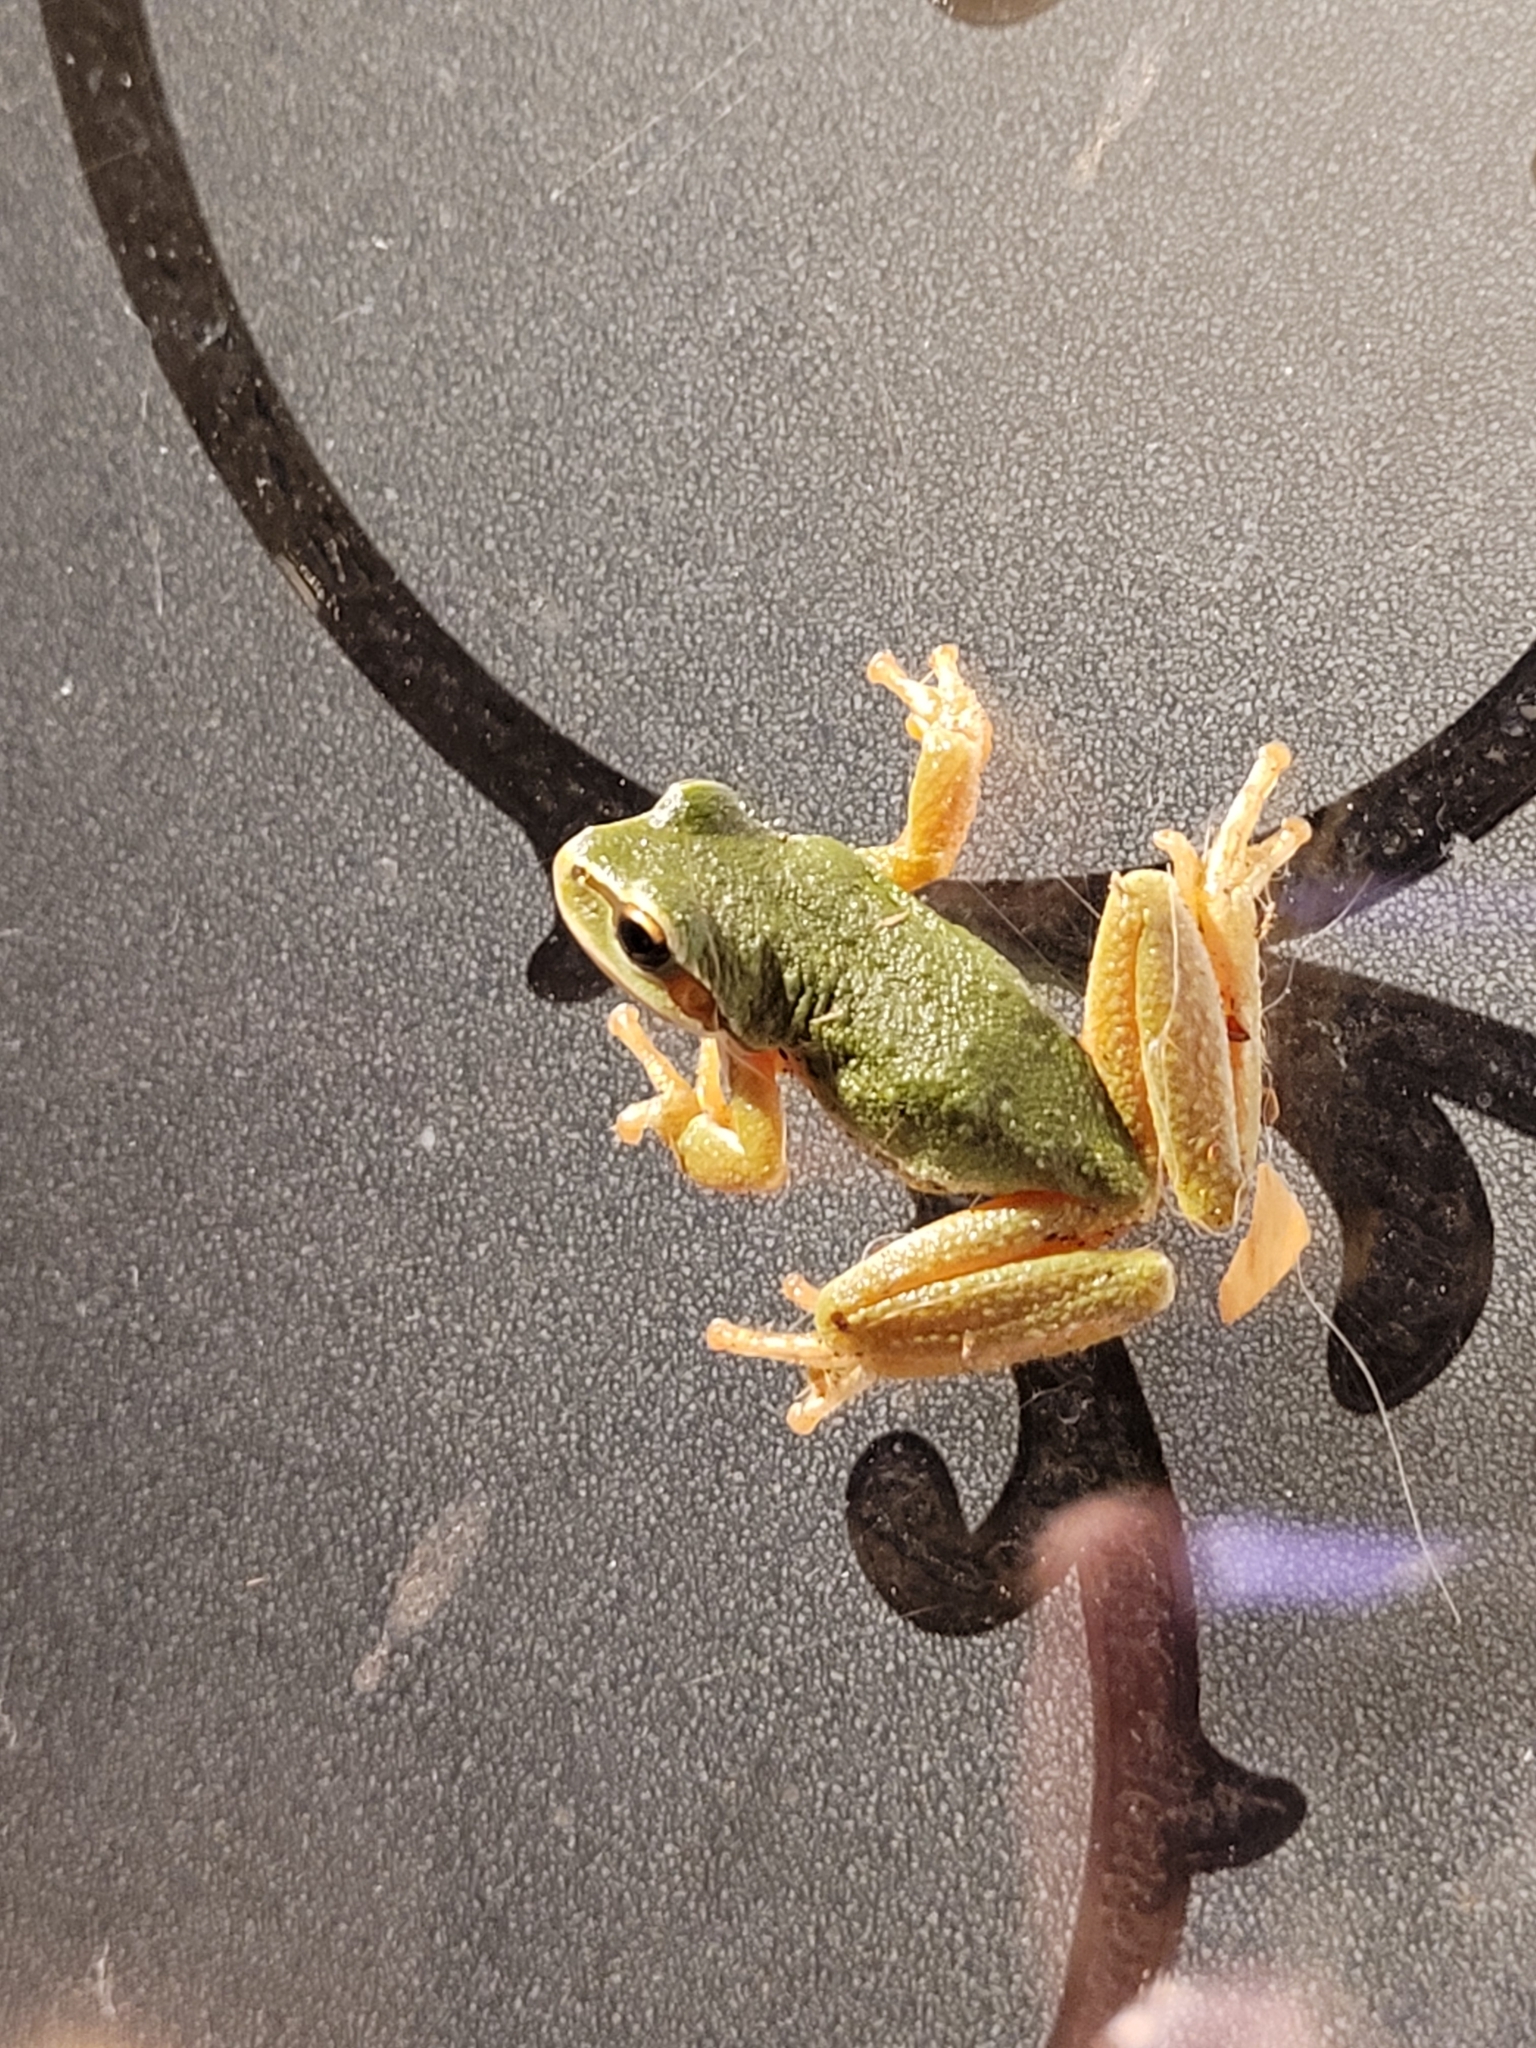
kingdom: Animalia
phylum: Chordata
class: Amphibia
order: Anura
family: Hylidae
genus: Pseudacris
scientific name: Pseudacris regilla
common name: Pacific chorus frog
